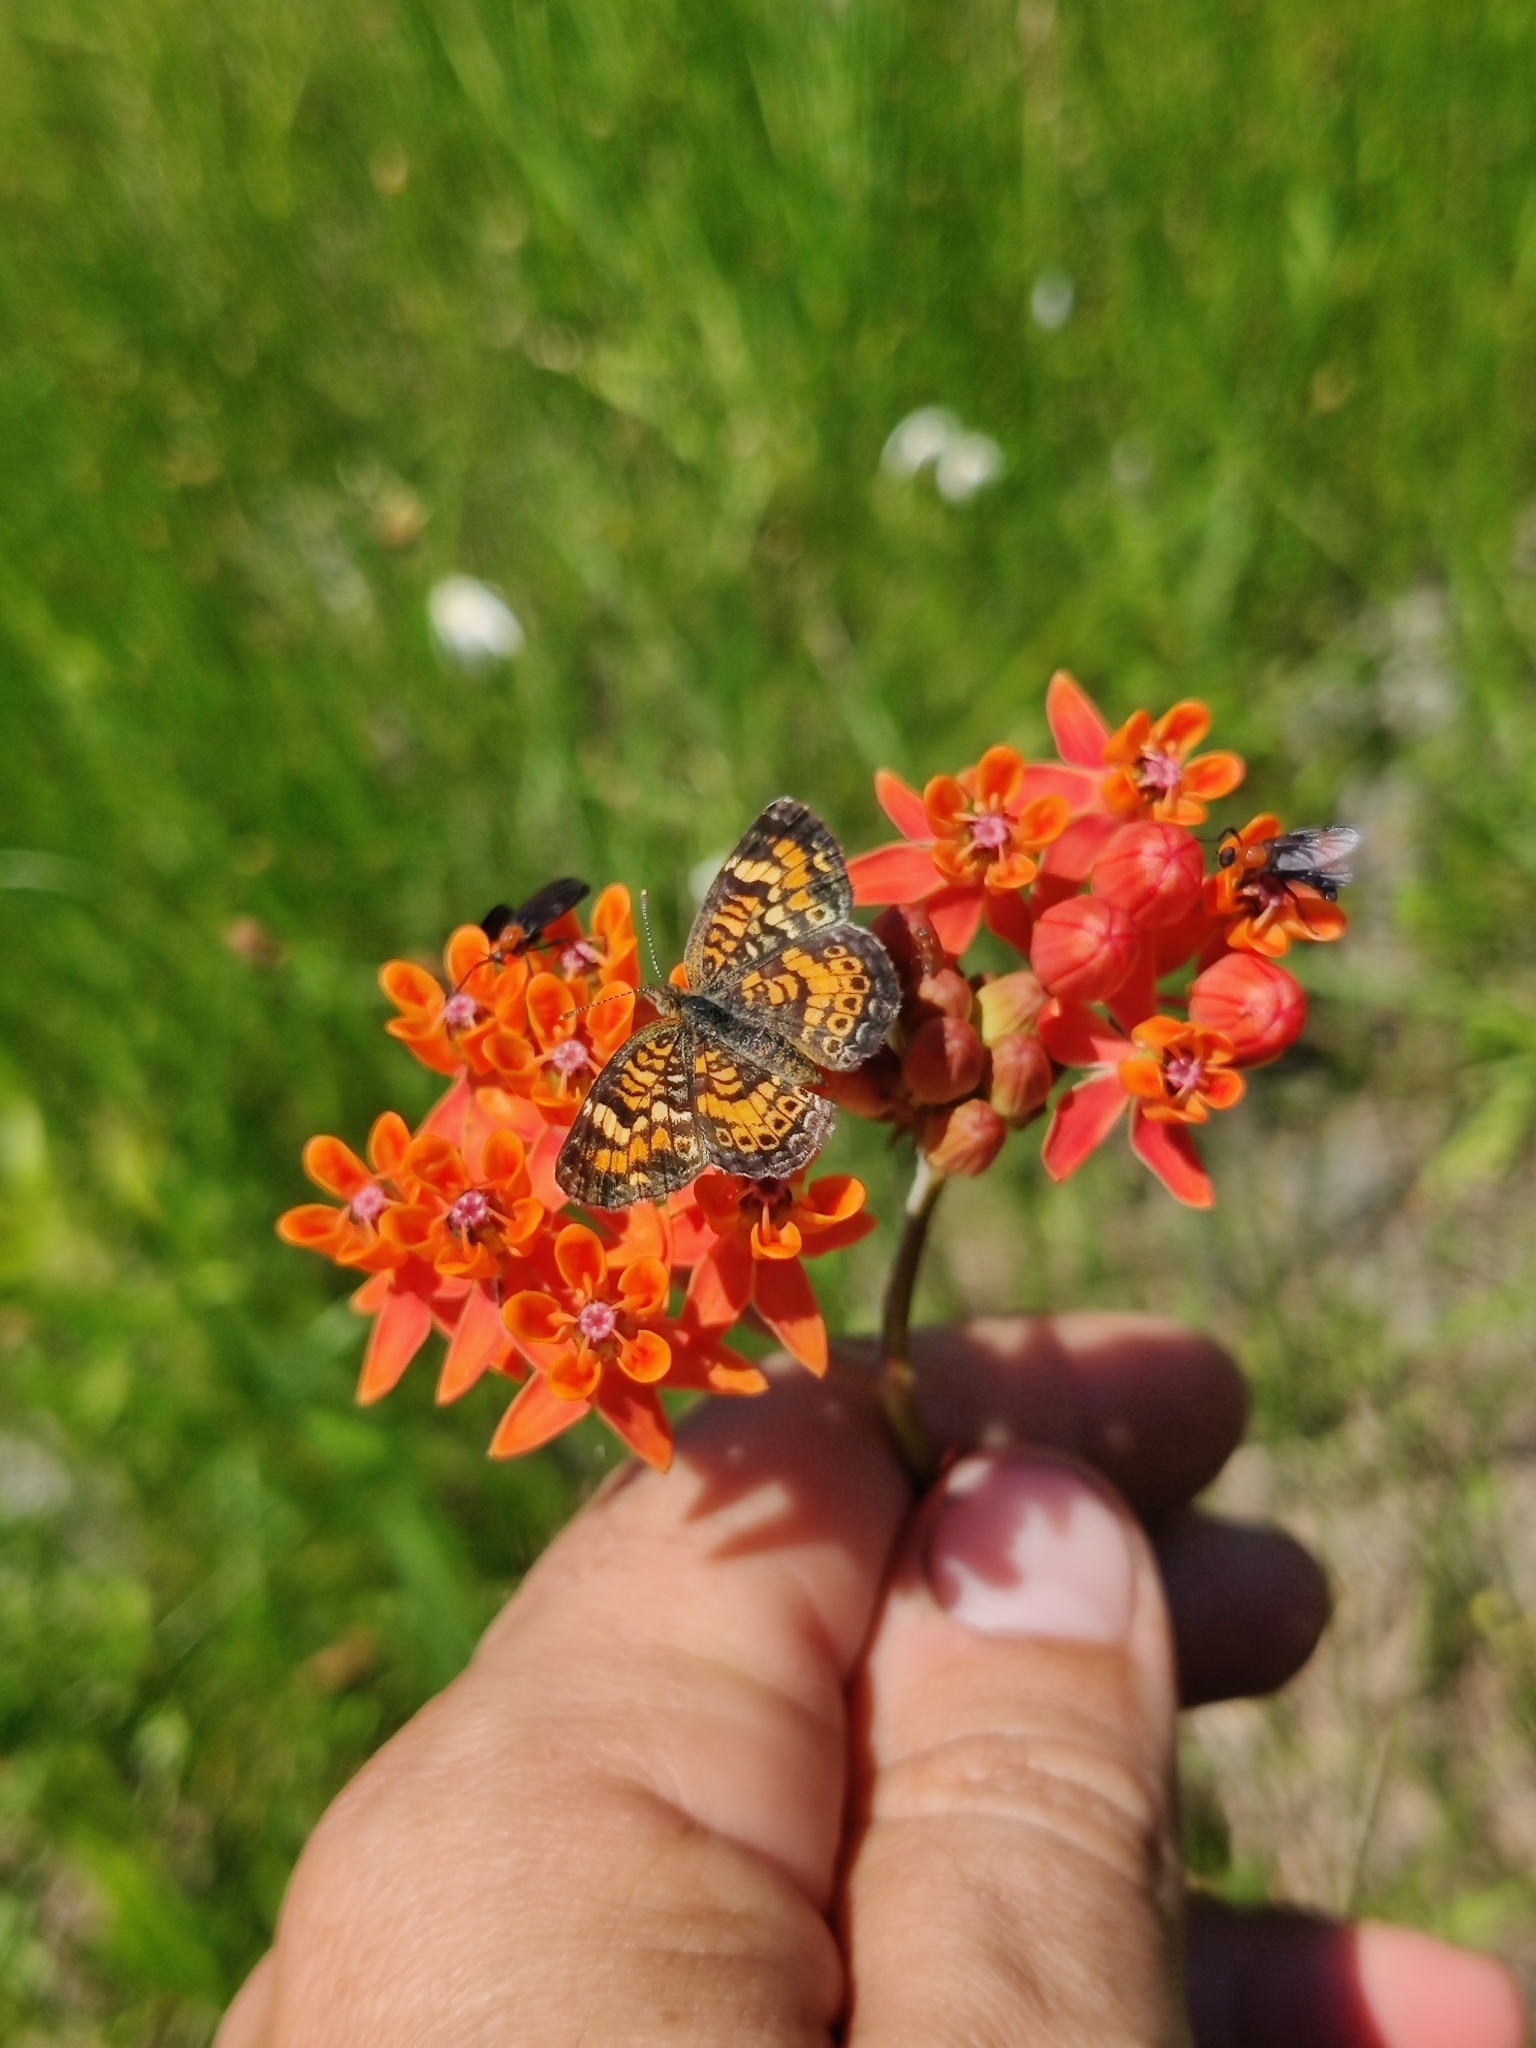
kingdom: Animalia
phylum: Arthropoda
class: Insecta
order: Lepidoptera
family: Nymphalidae
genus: Phyciodes
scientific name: Phyciodes phaon
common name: Phaon crescent
